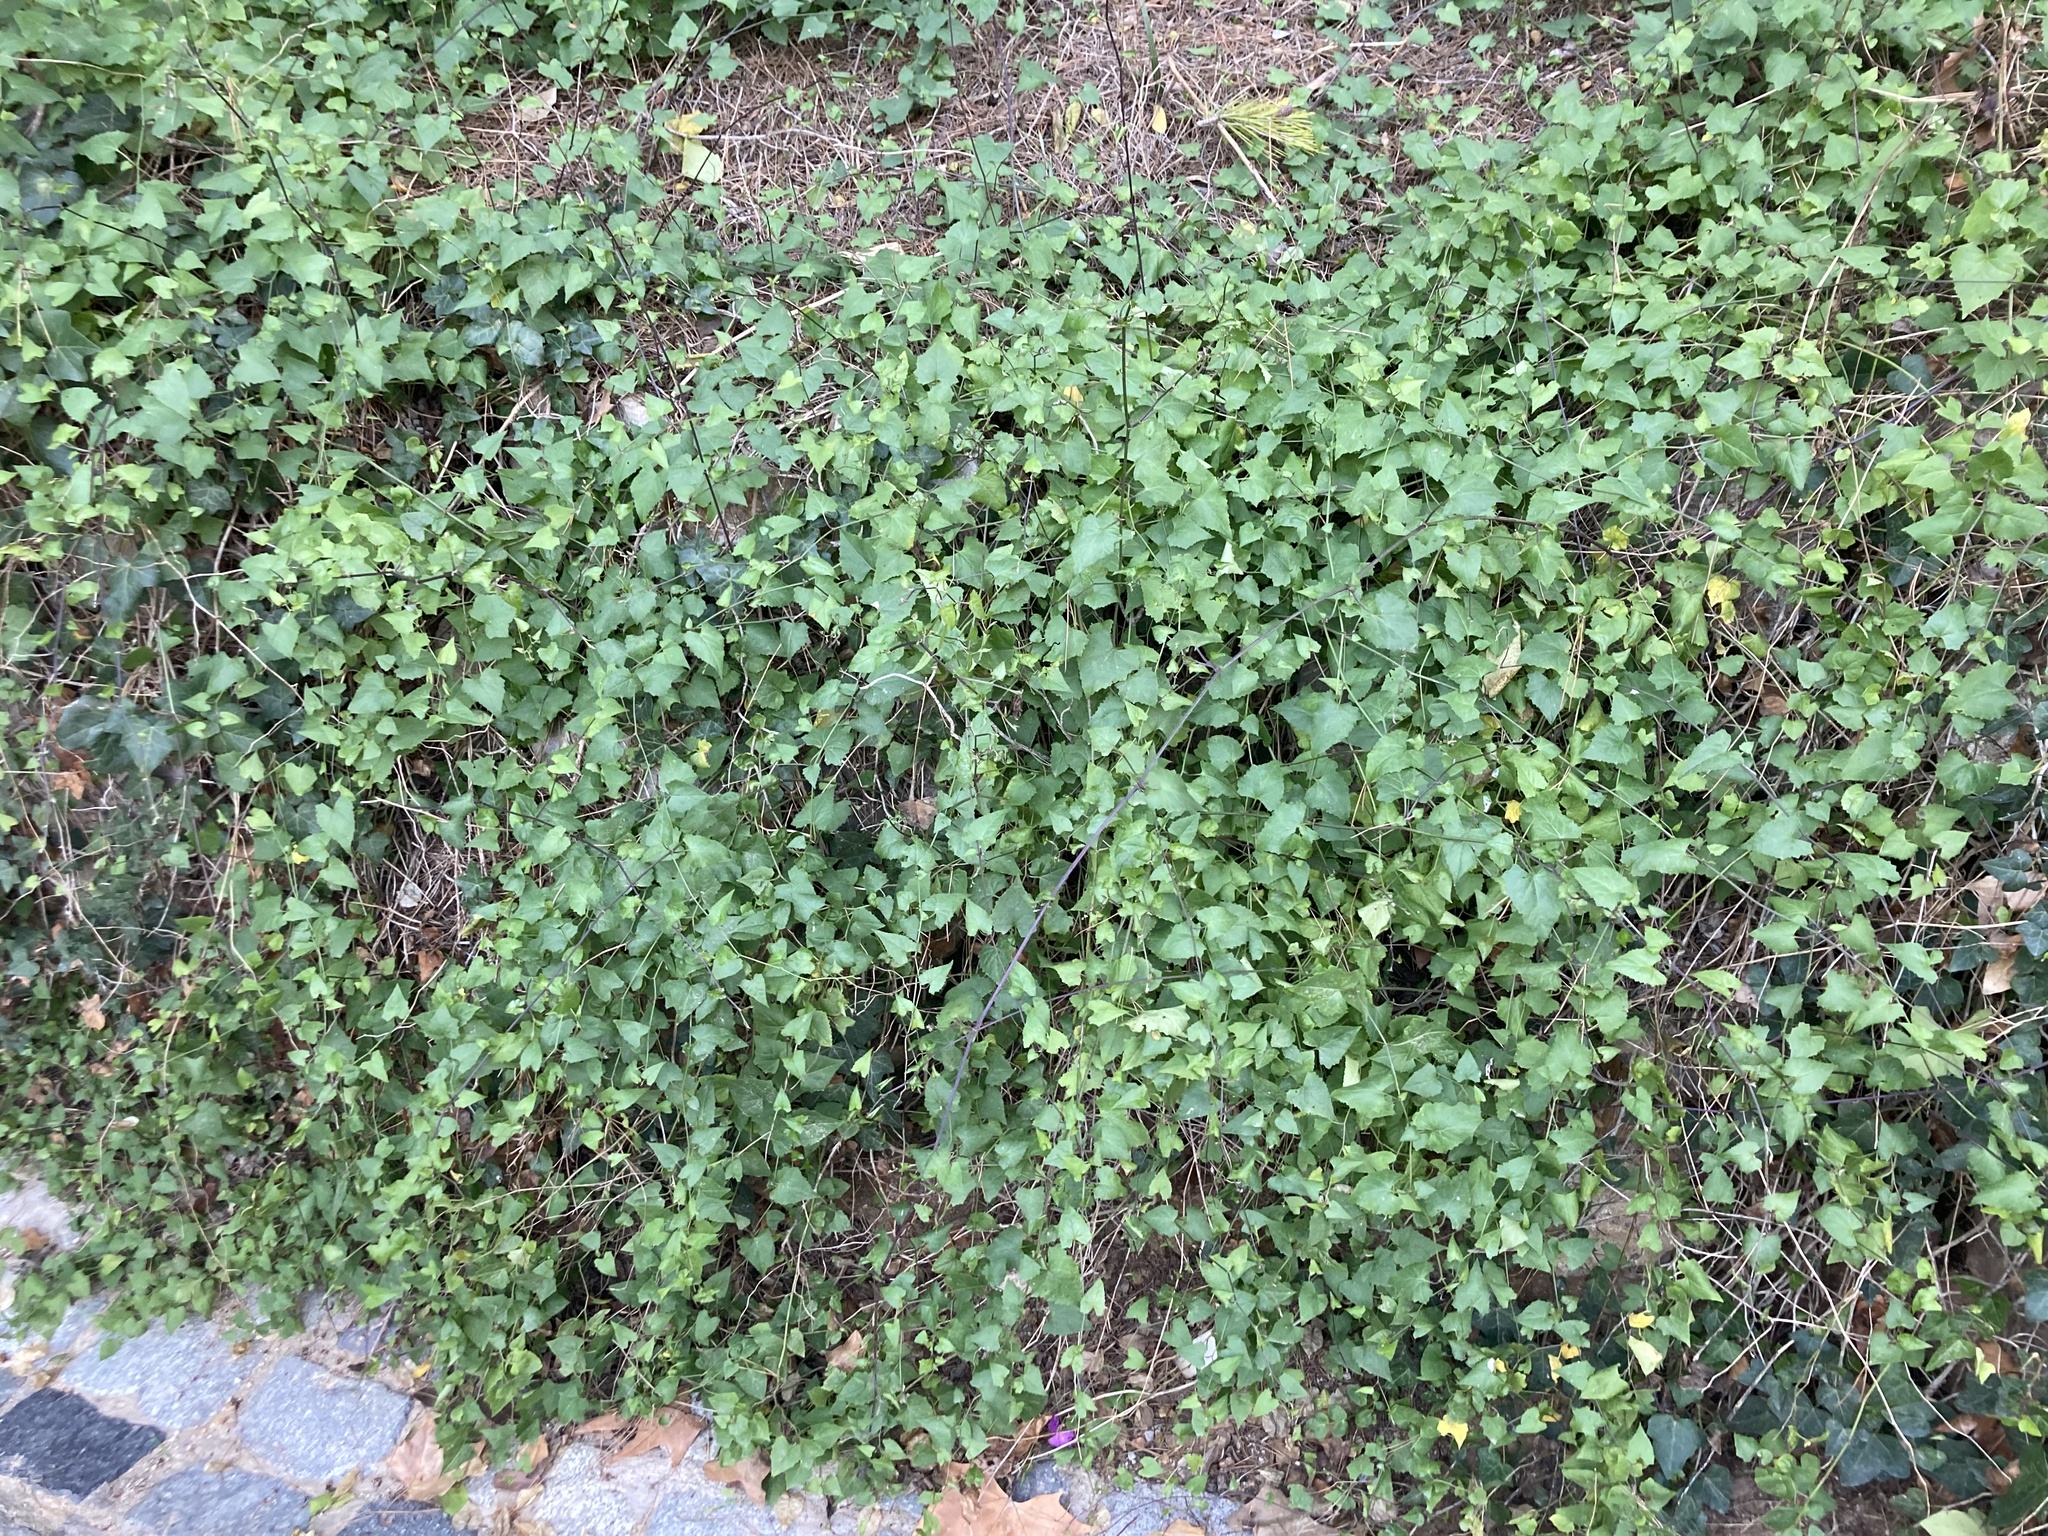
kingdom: Plantae
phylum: Tracheophyta
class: Magnoliopsida
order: Asterales
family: Asteraceae
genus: Senecio
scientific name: Senecio deltoideus
